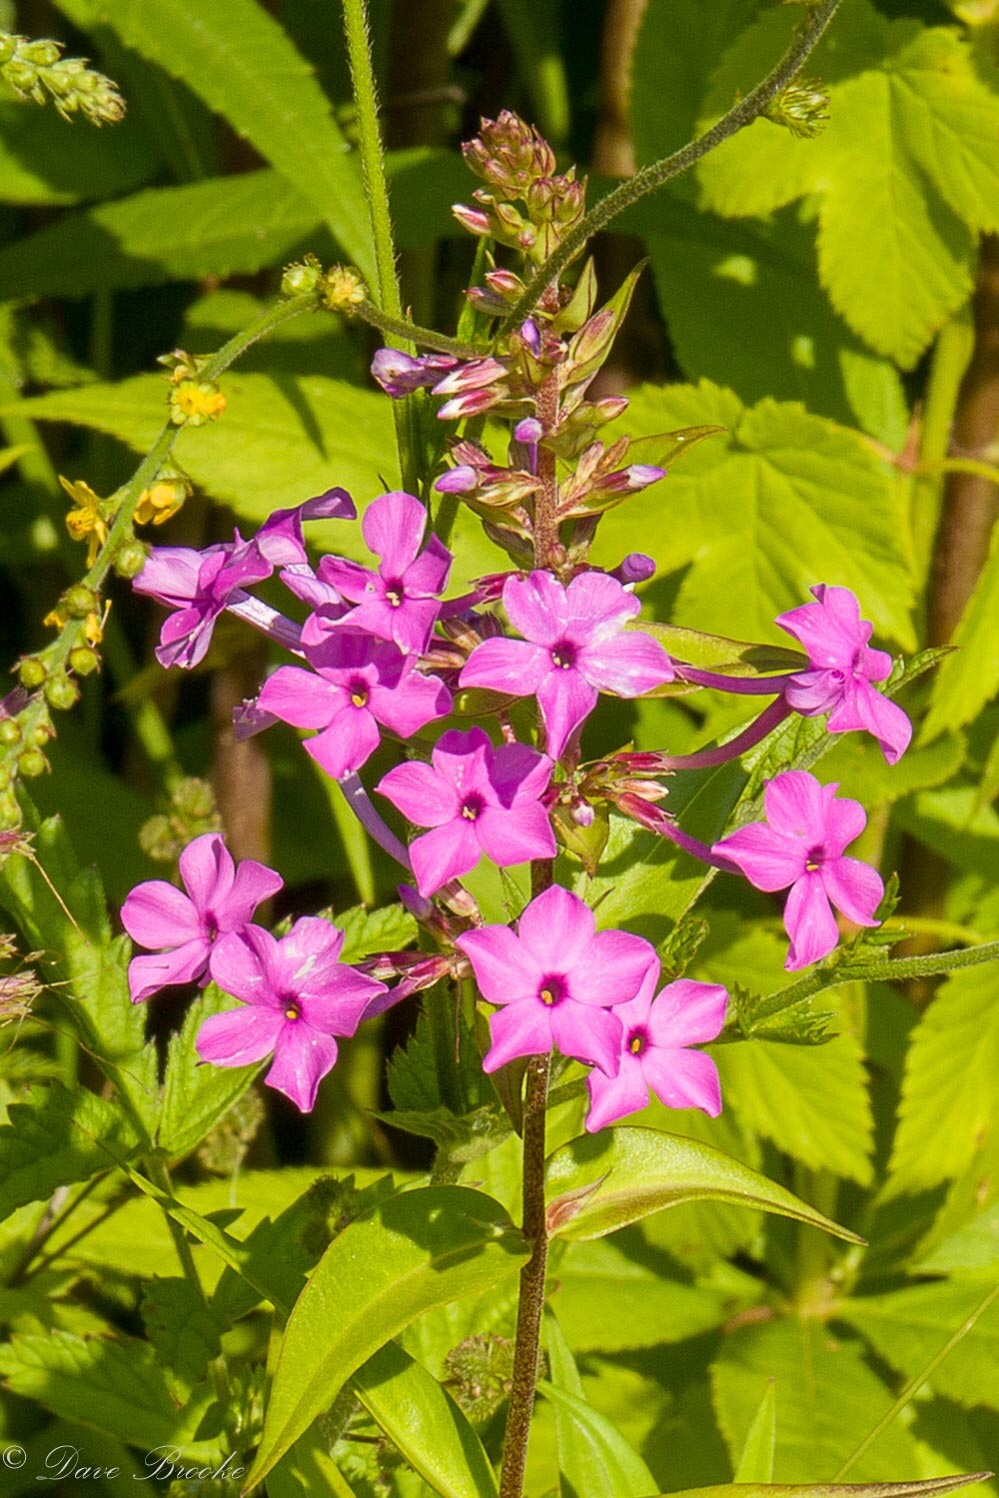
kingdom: Plantae
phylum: Tracheophyta
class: Magnoliopsida
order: Ericales
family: Polemoniaceae
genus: Phlox
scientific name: Phlox maculata
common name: Meadow phlox
